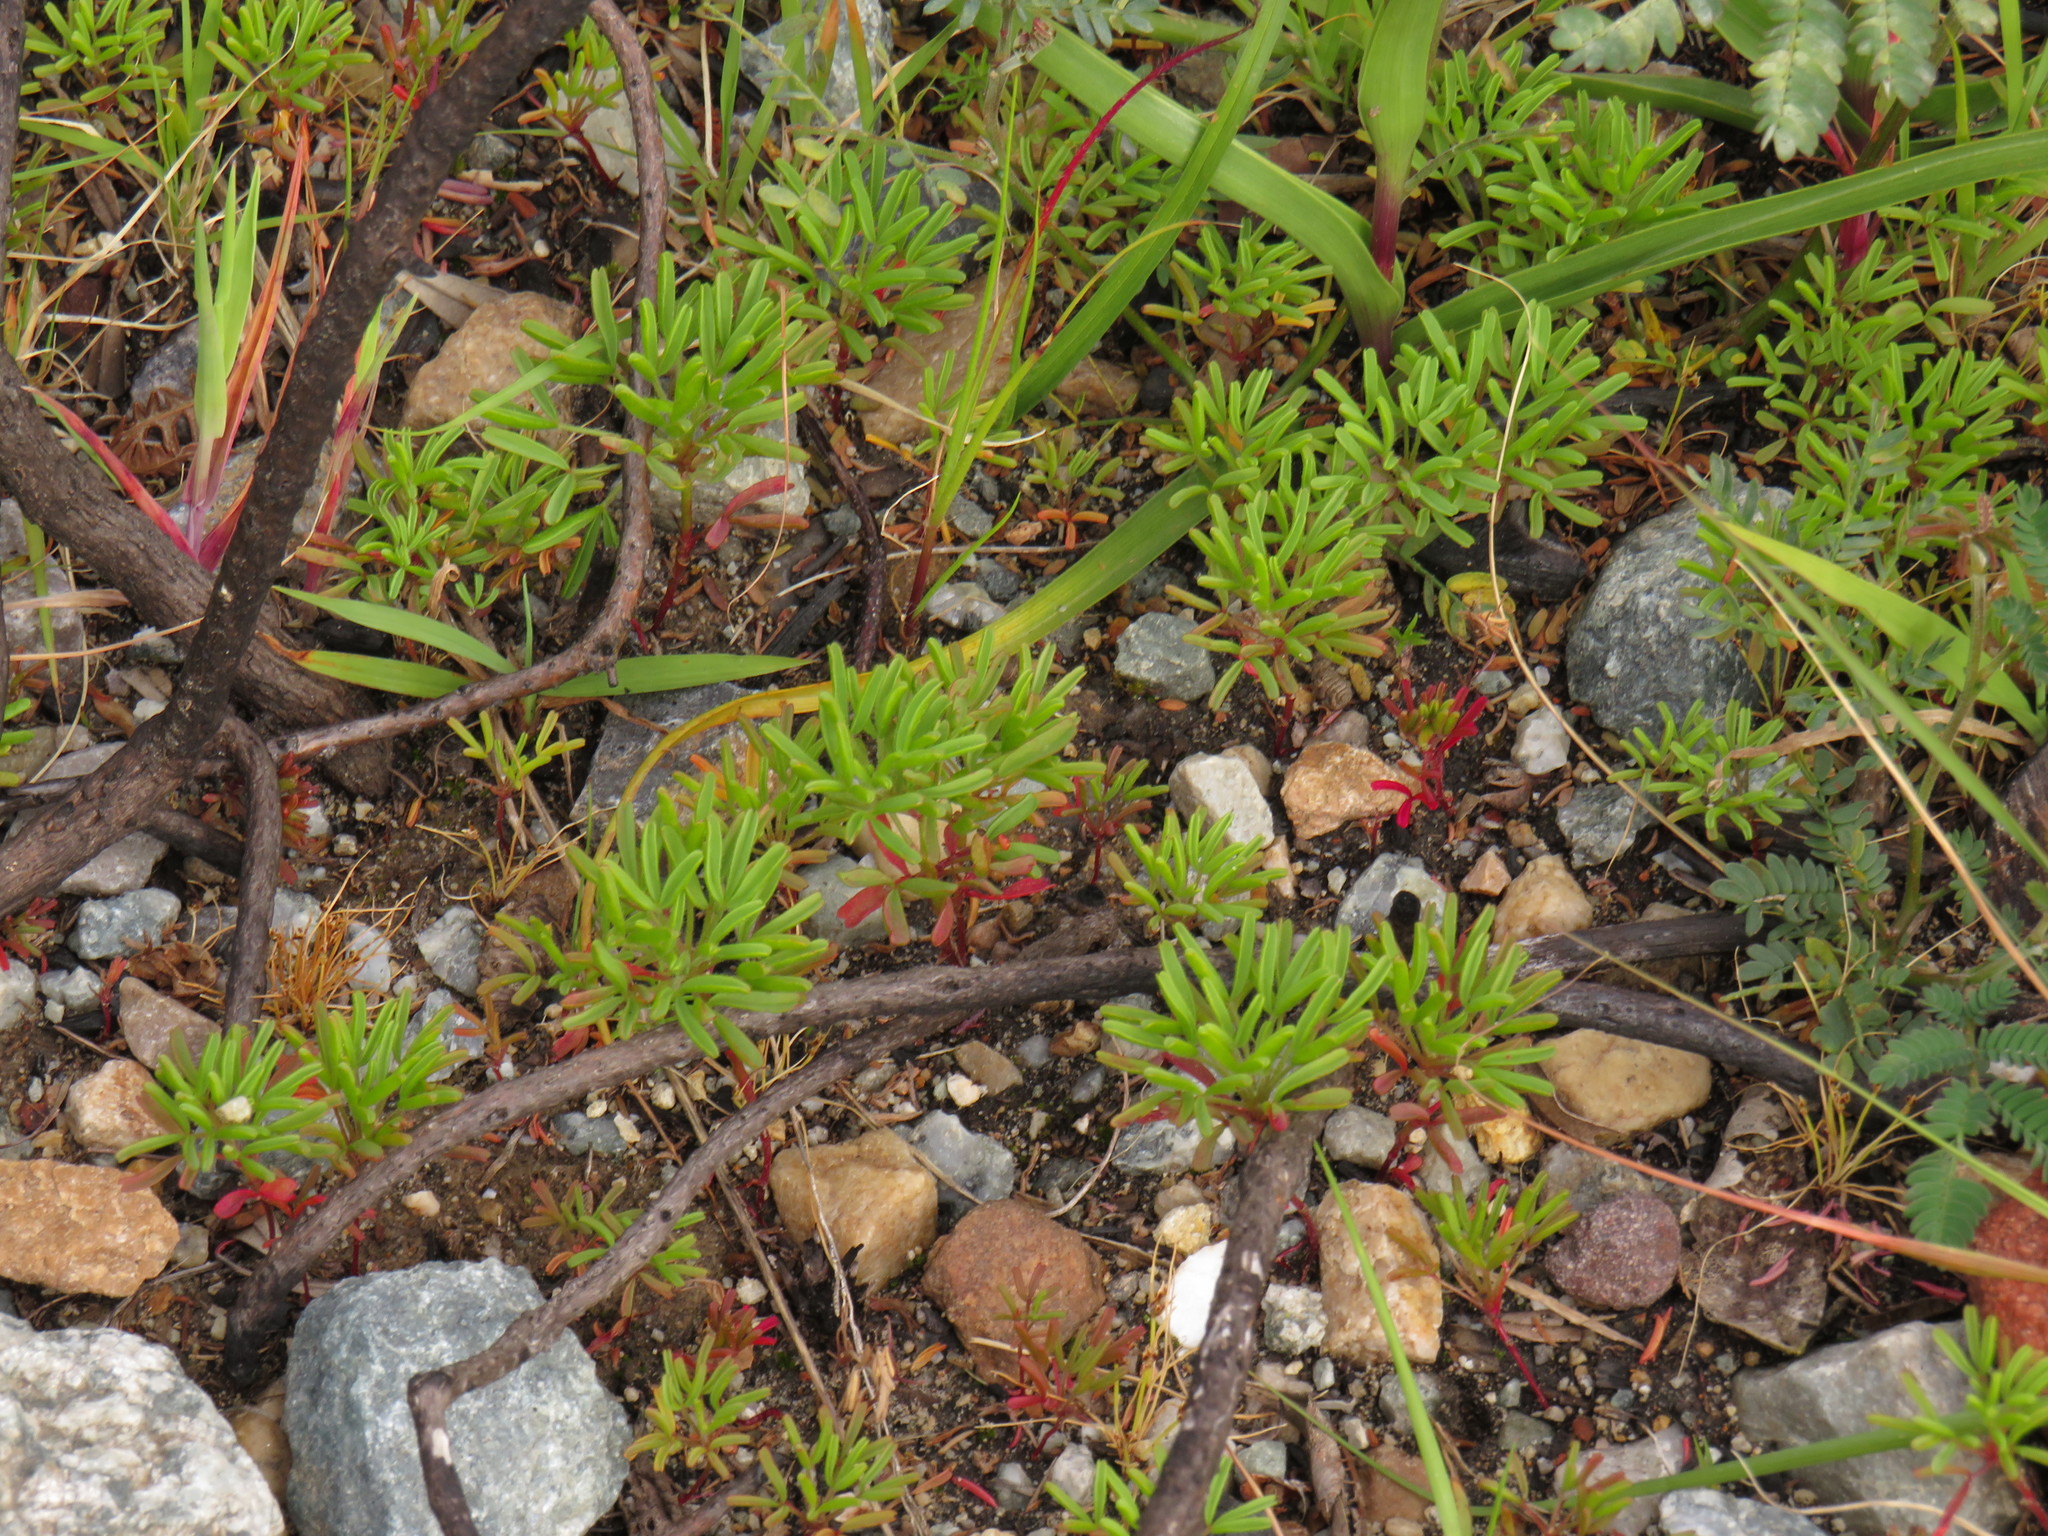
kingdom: Plantae
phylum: Tracheophyta
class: Magnoliopsida
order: Oxalidales
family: Oxalidaceae
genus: Oxalis
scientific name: Oxalis glabra
